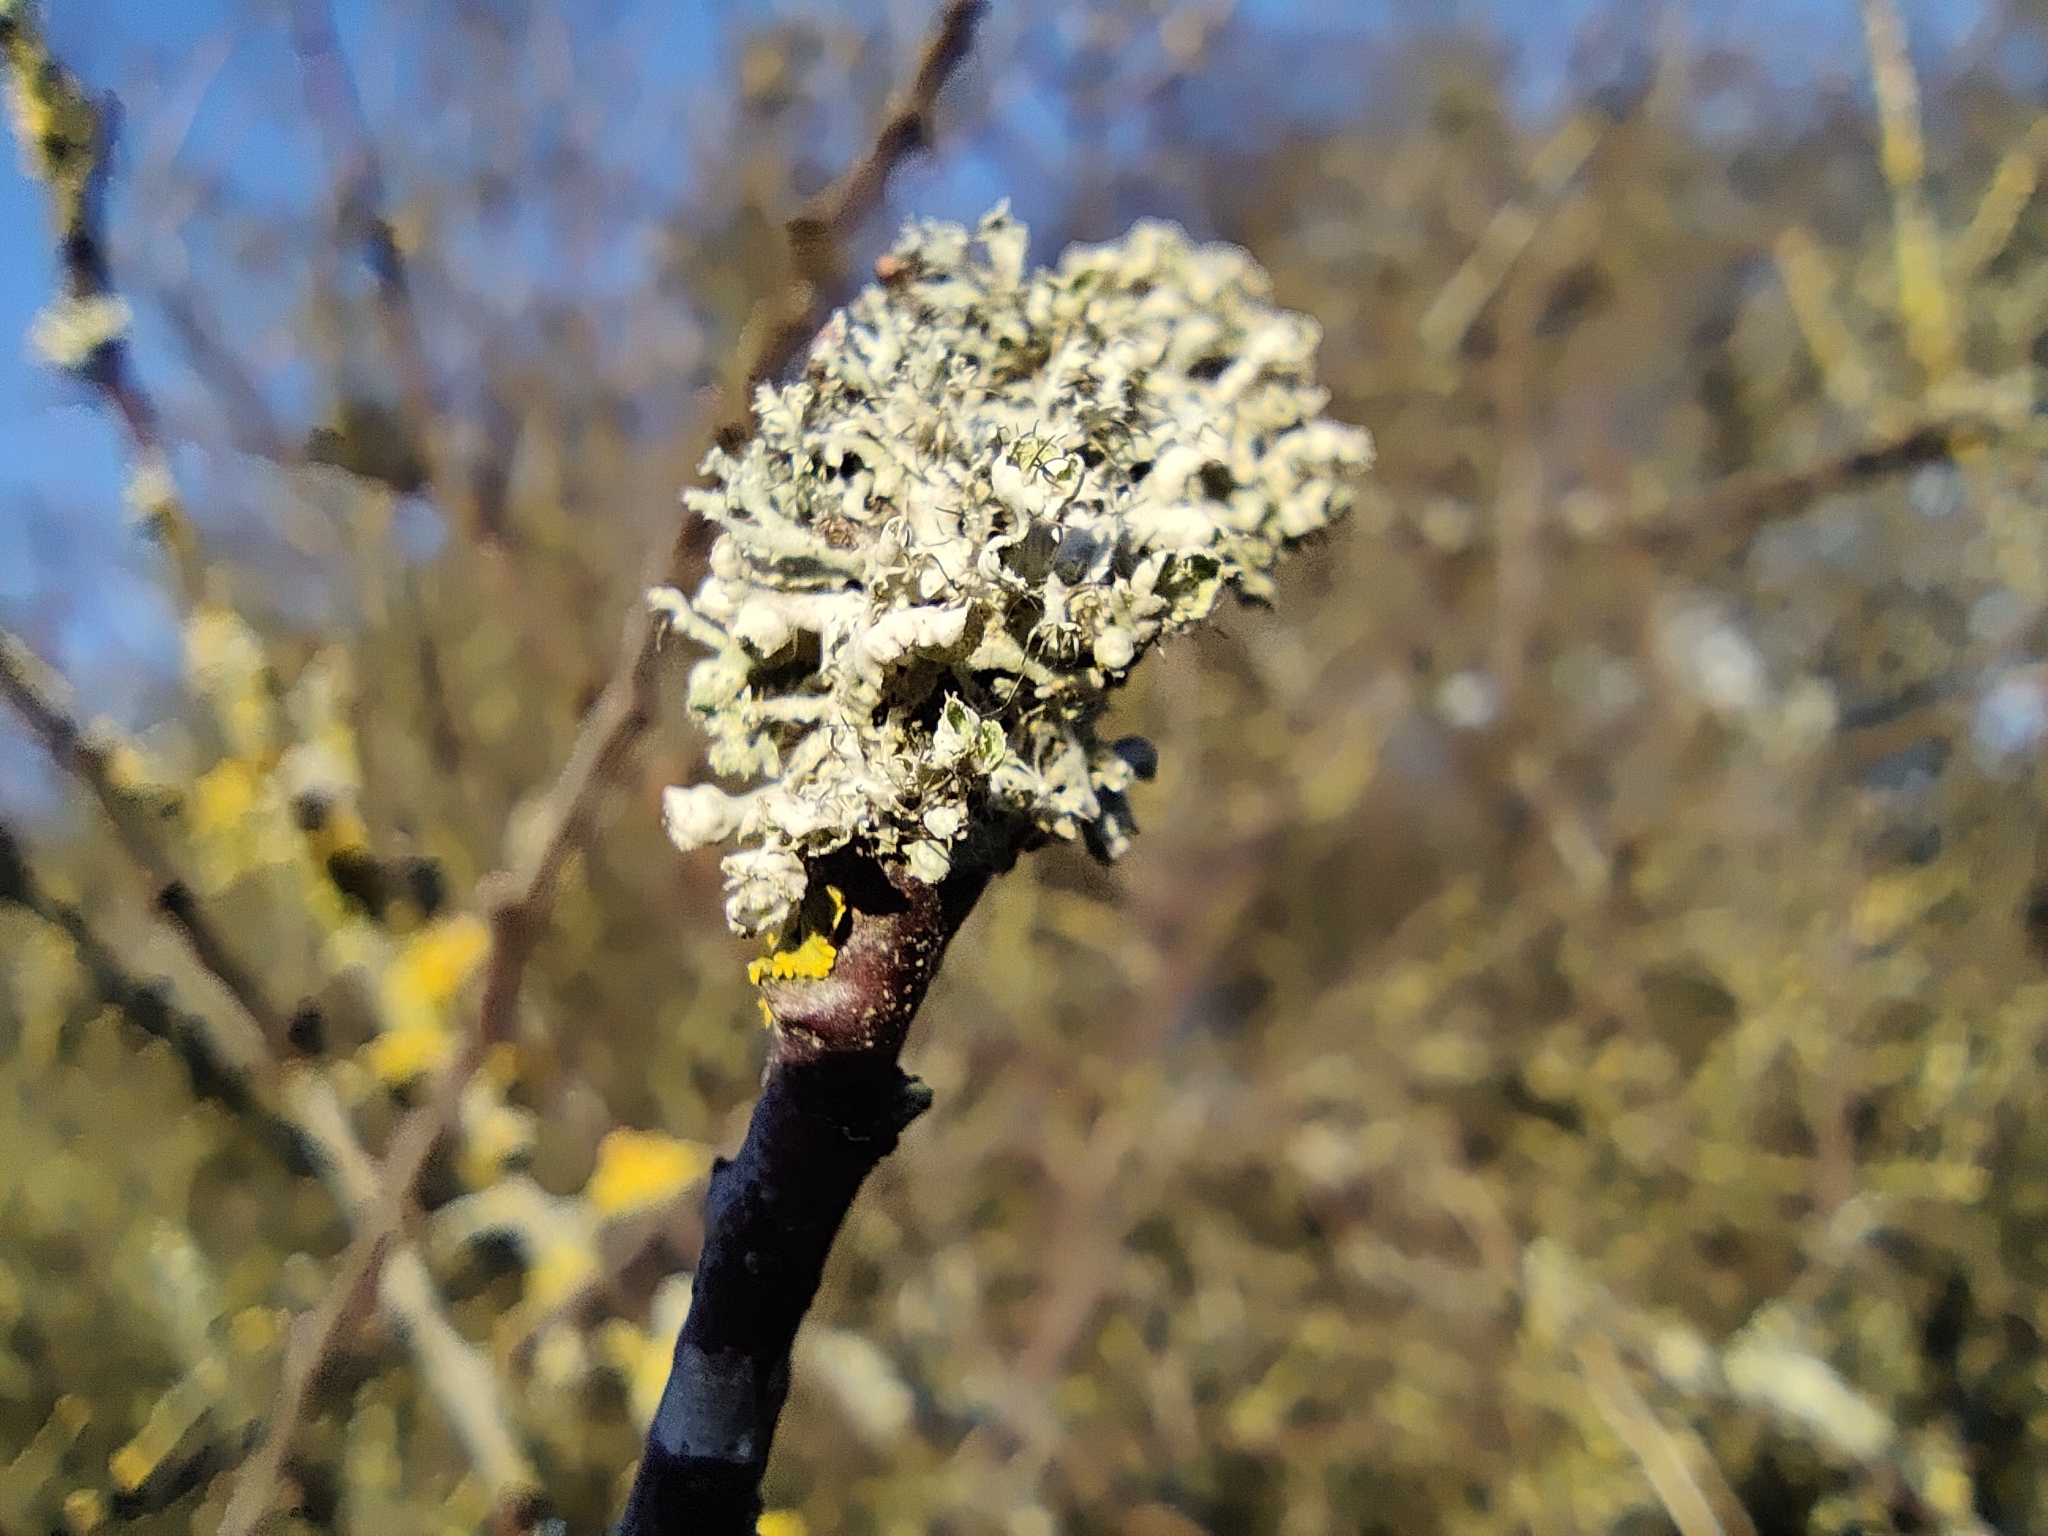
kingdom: Fungi
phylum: Ascomycota
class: Lecanoromycetes
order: Caliciales
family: Physciaceae
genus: Physcia
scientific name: Physcia tenella
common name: Fringed rosette lichen
